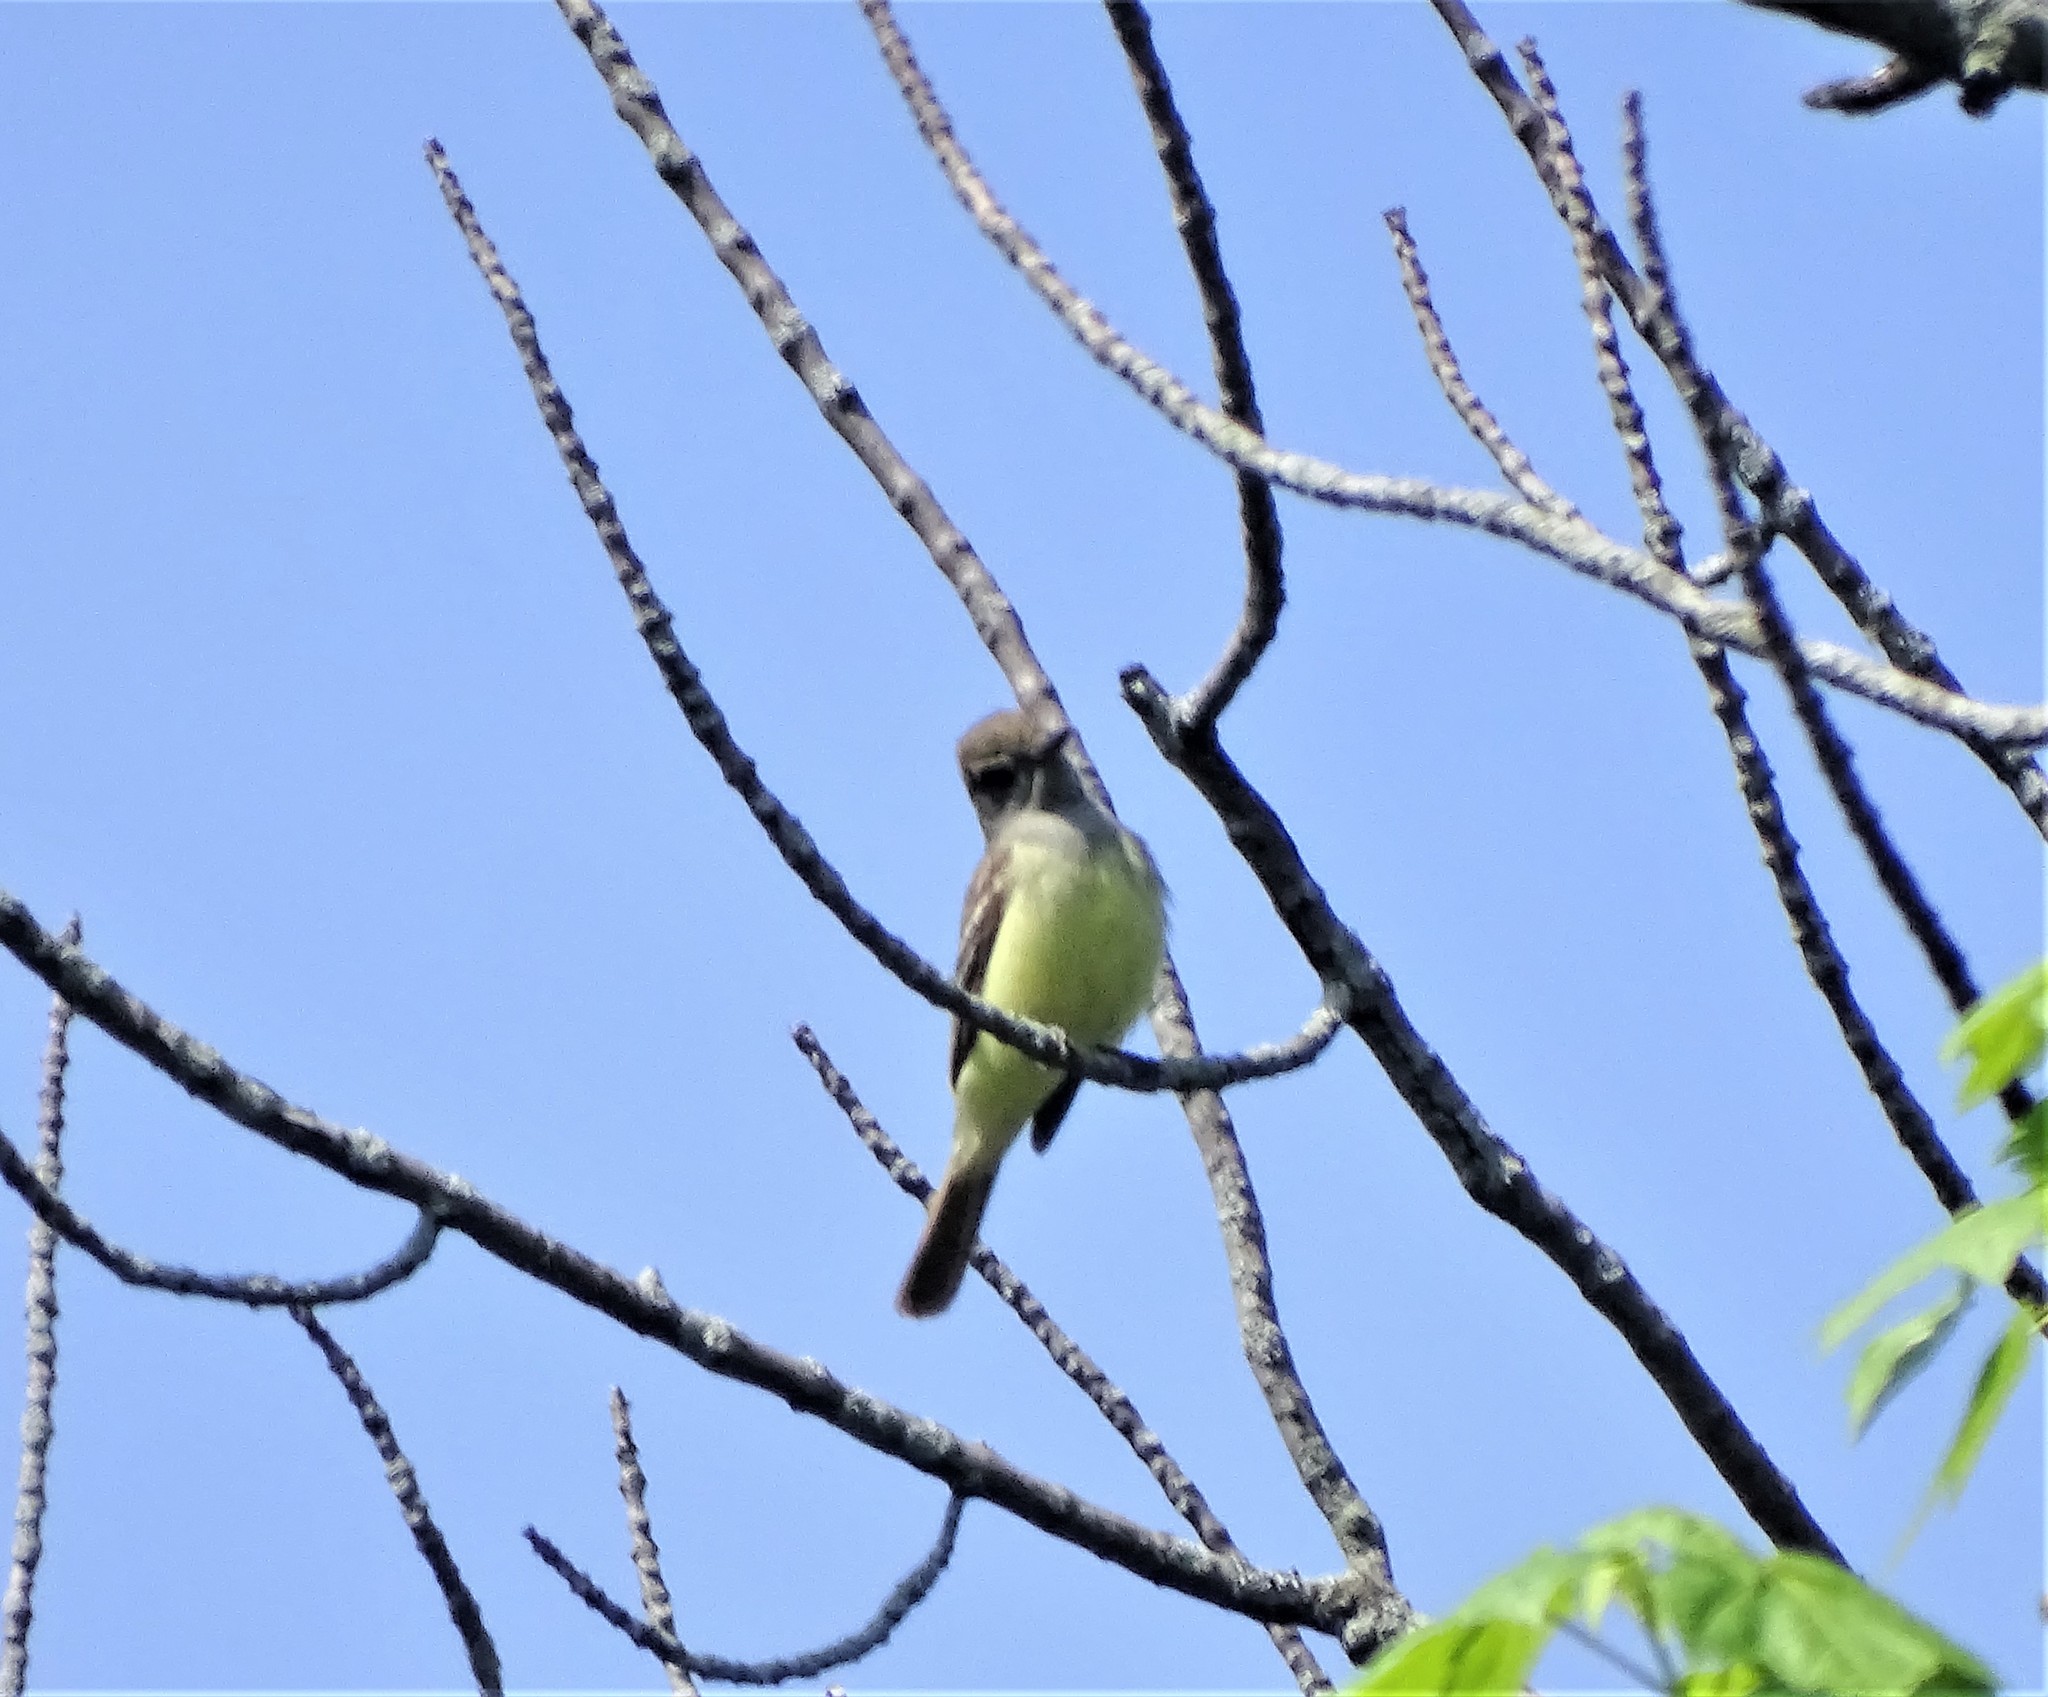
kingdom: Animalia
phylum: Chordata
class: Aves
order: Passeriformes
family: Tyrannidae
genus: Myiarchus
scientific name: Myiarchus crinitus
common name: Great crested flycatcher
